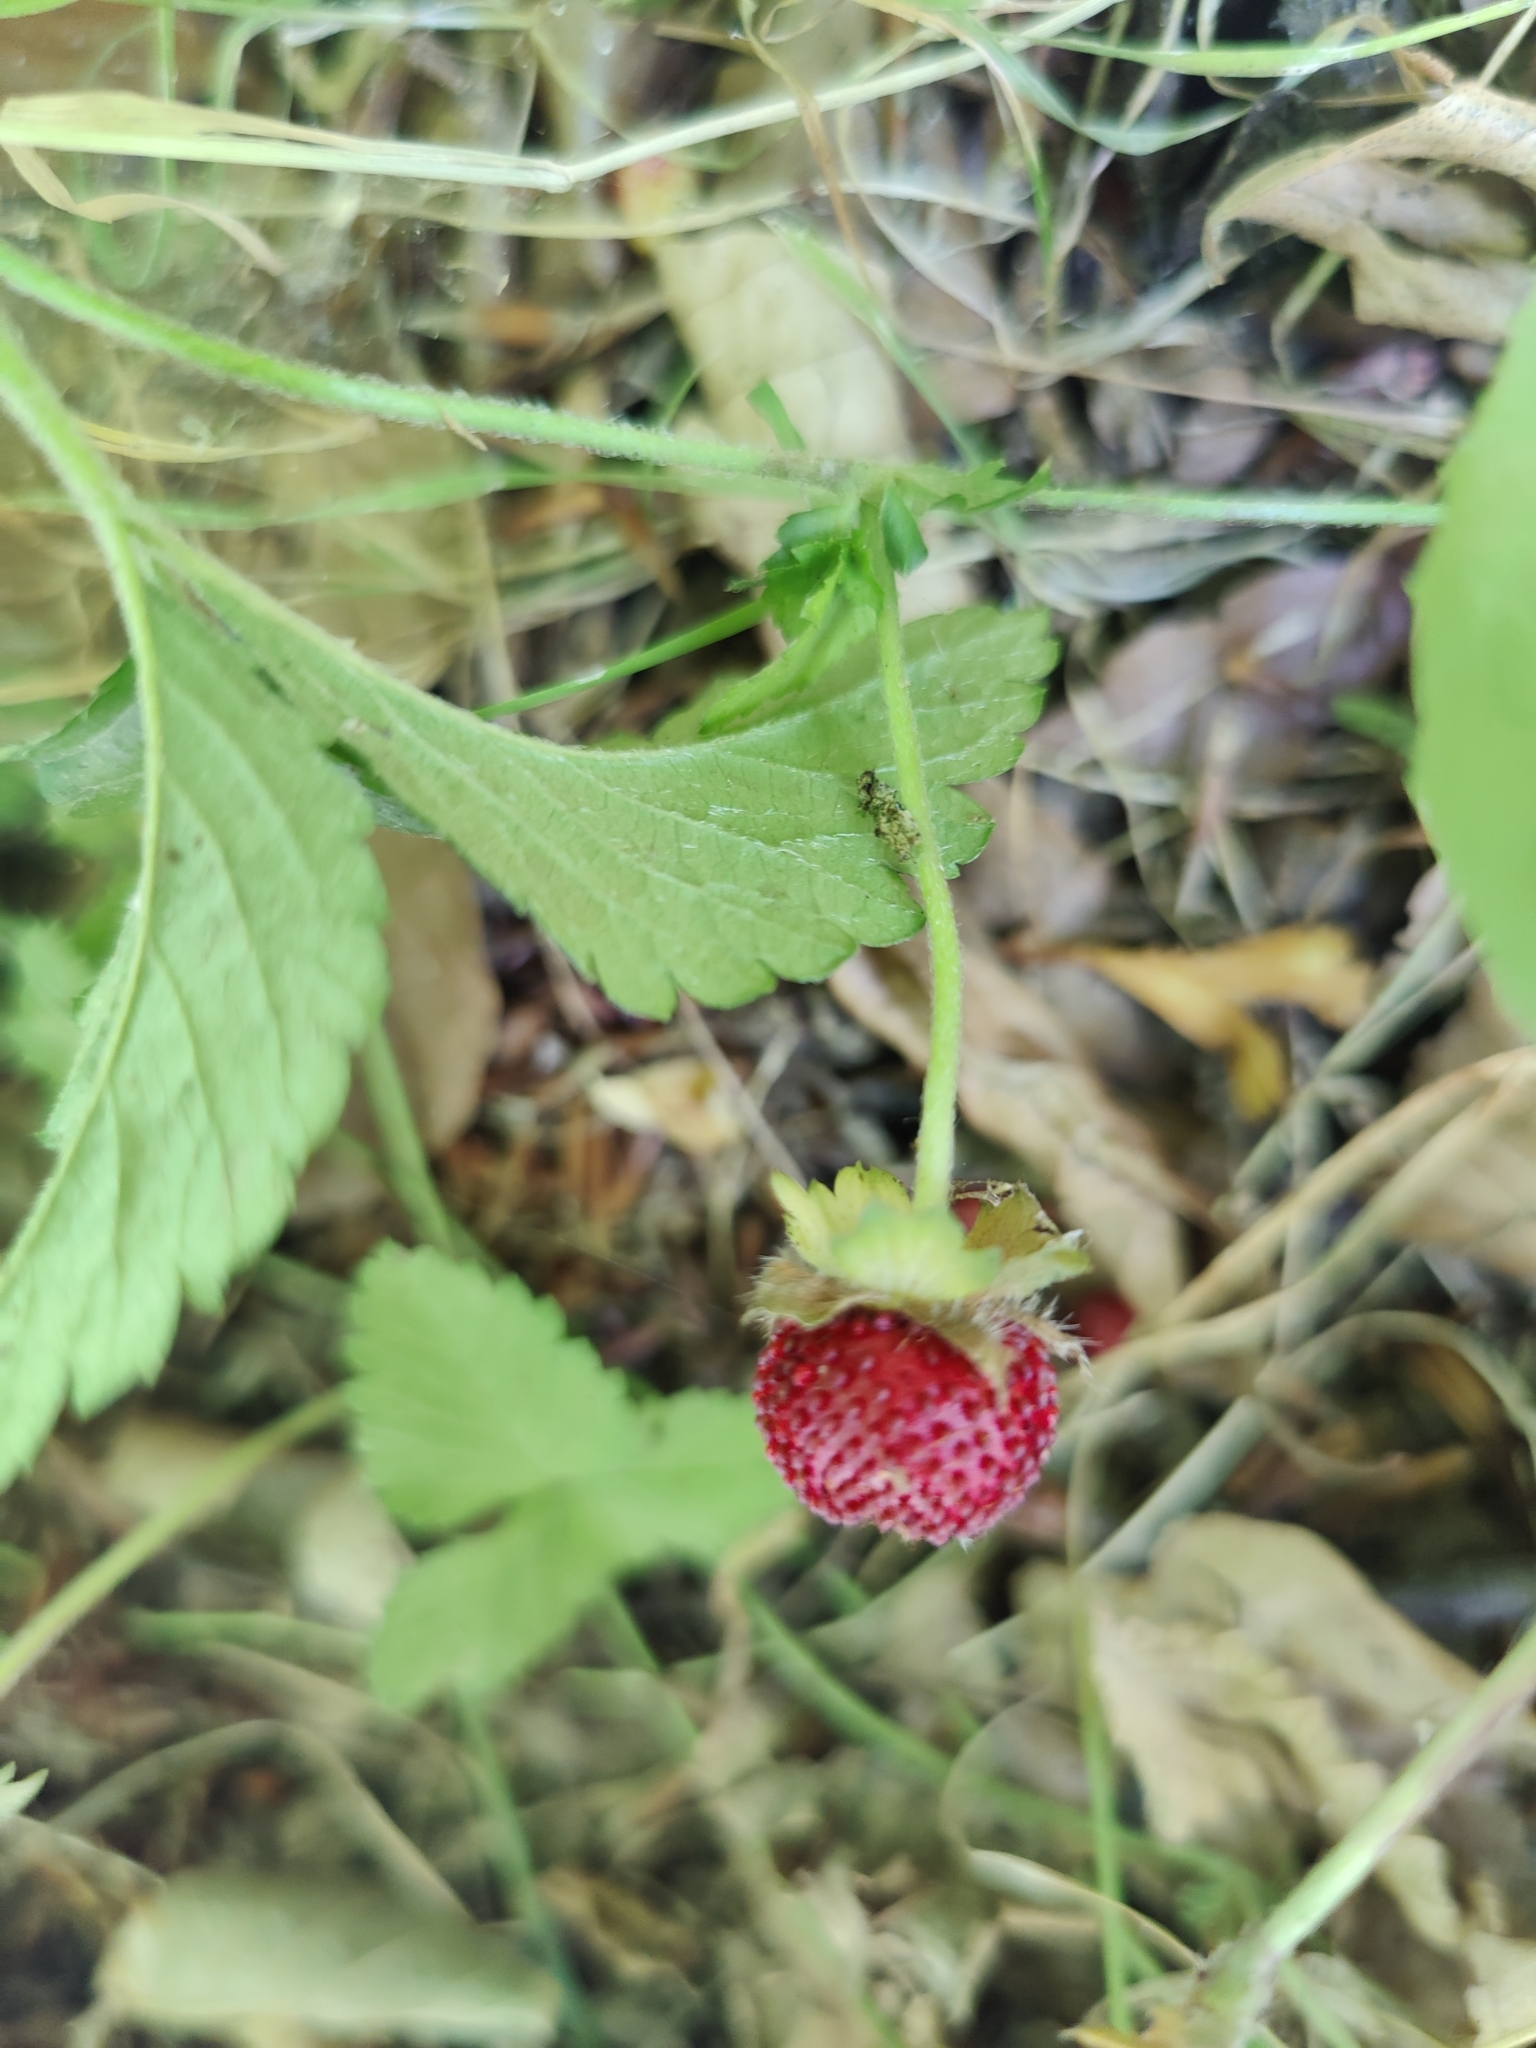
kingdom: Plantae
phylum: Tracheophyta
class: Magnoliopsida
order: Rosales
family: Rosaceae
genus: Potentilla
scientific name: Potentilla indica
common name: Yellow-flowered strawberry
